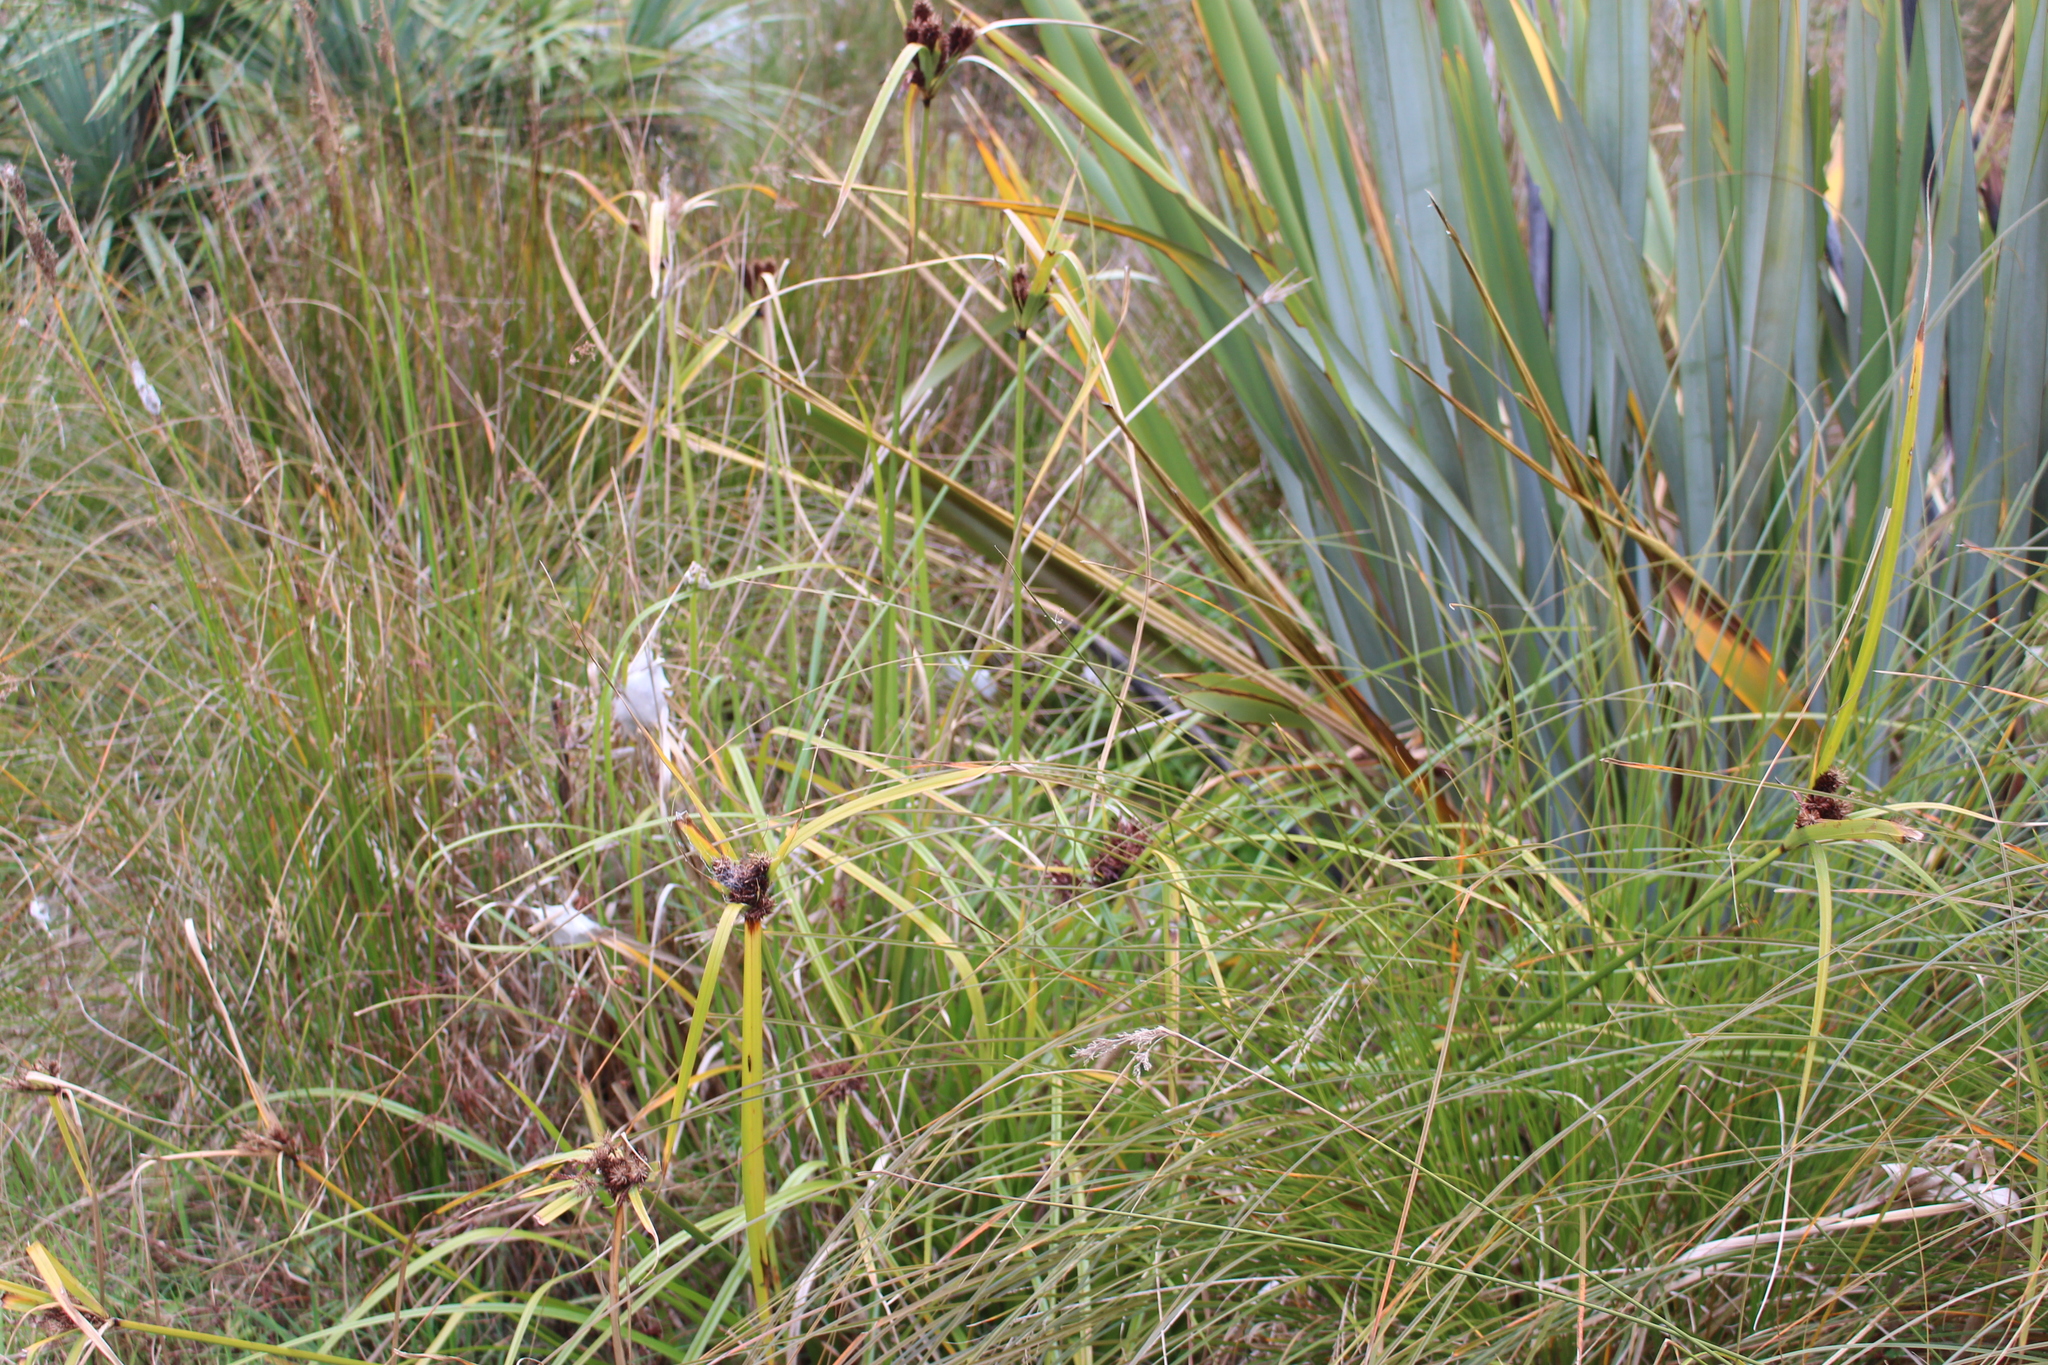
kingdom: Plantae
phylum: Tracheophyta
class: Liliopsida
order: Poales
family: Cyperaceae
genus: Cyperus
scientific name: Cyperus ustulatus
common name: Giant umbrella-sedge
